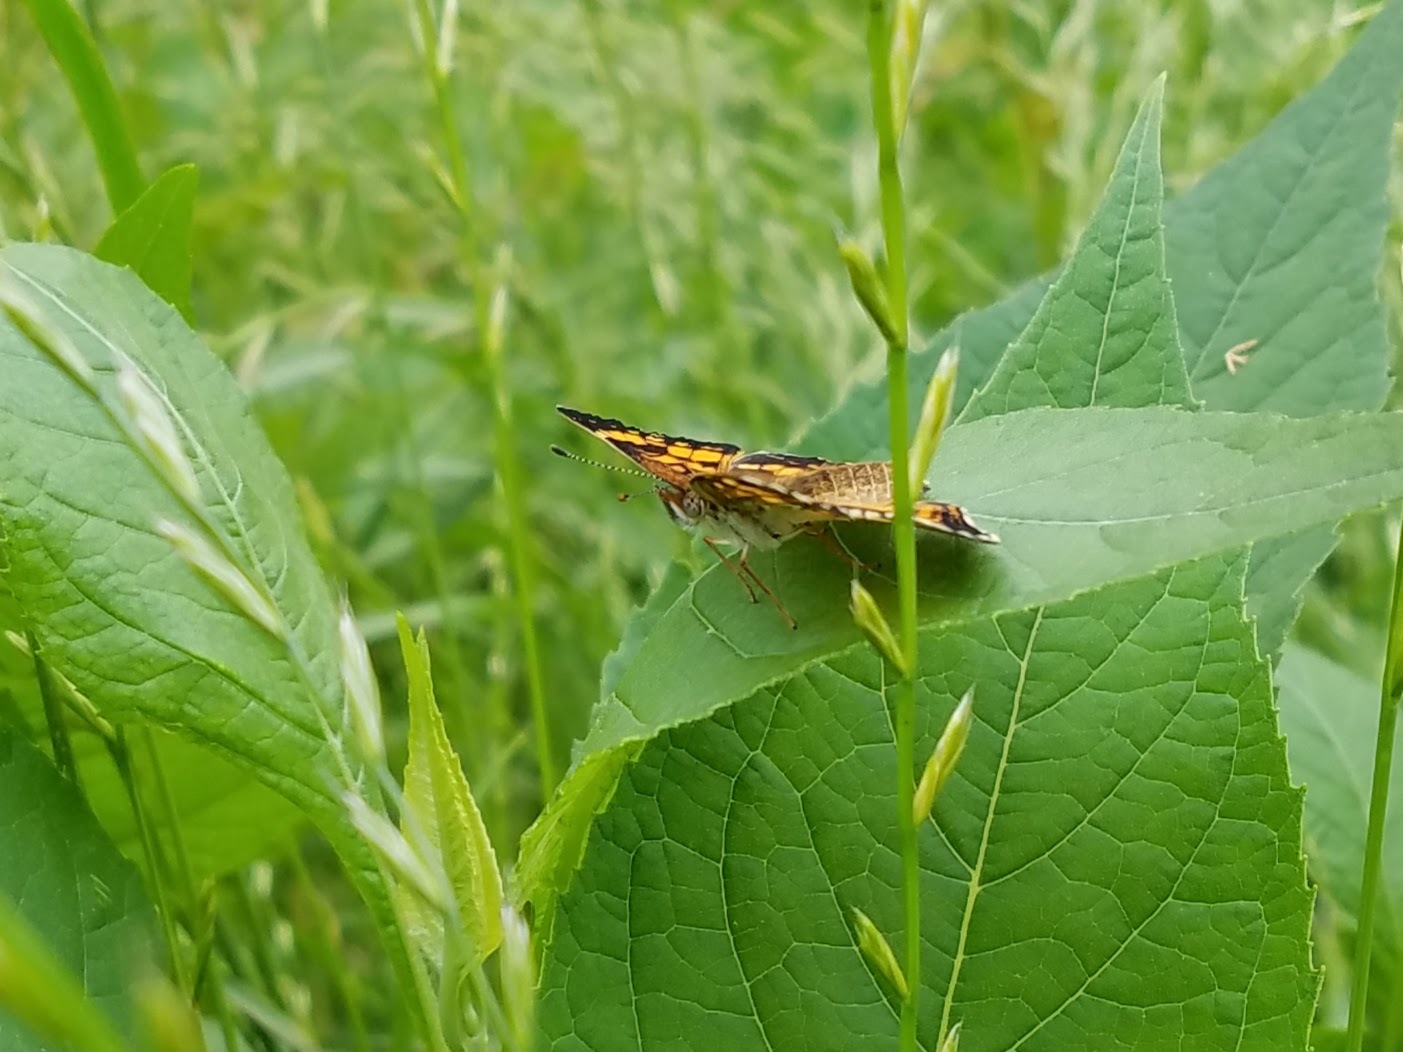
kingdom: Animalia
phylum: Arthropoda
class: Insecta
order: Lepidoptera
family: Nymphalidae
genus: Chlosyne
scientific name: Chlosyne nycteis
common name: Silvery checkerspot
